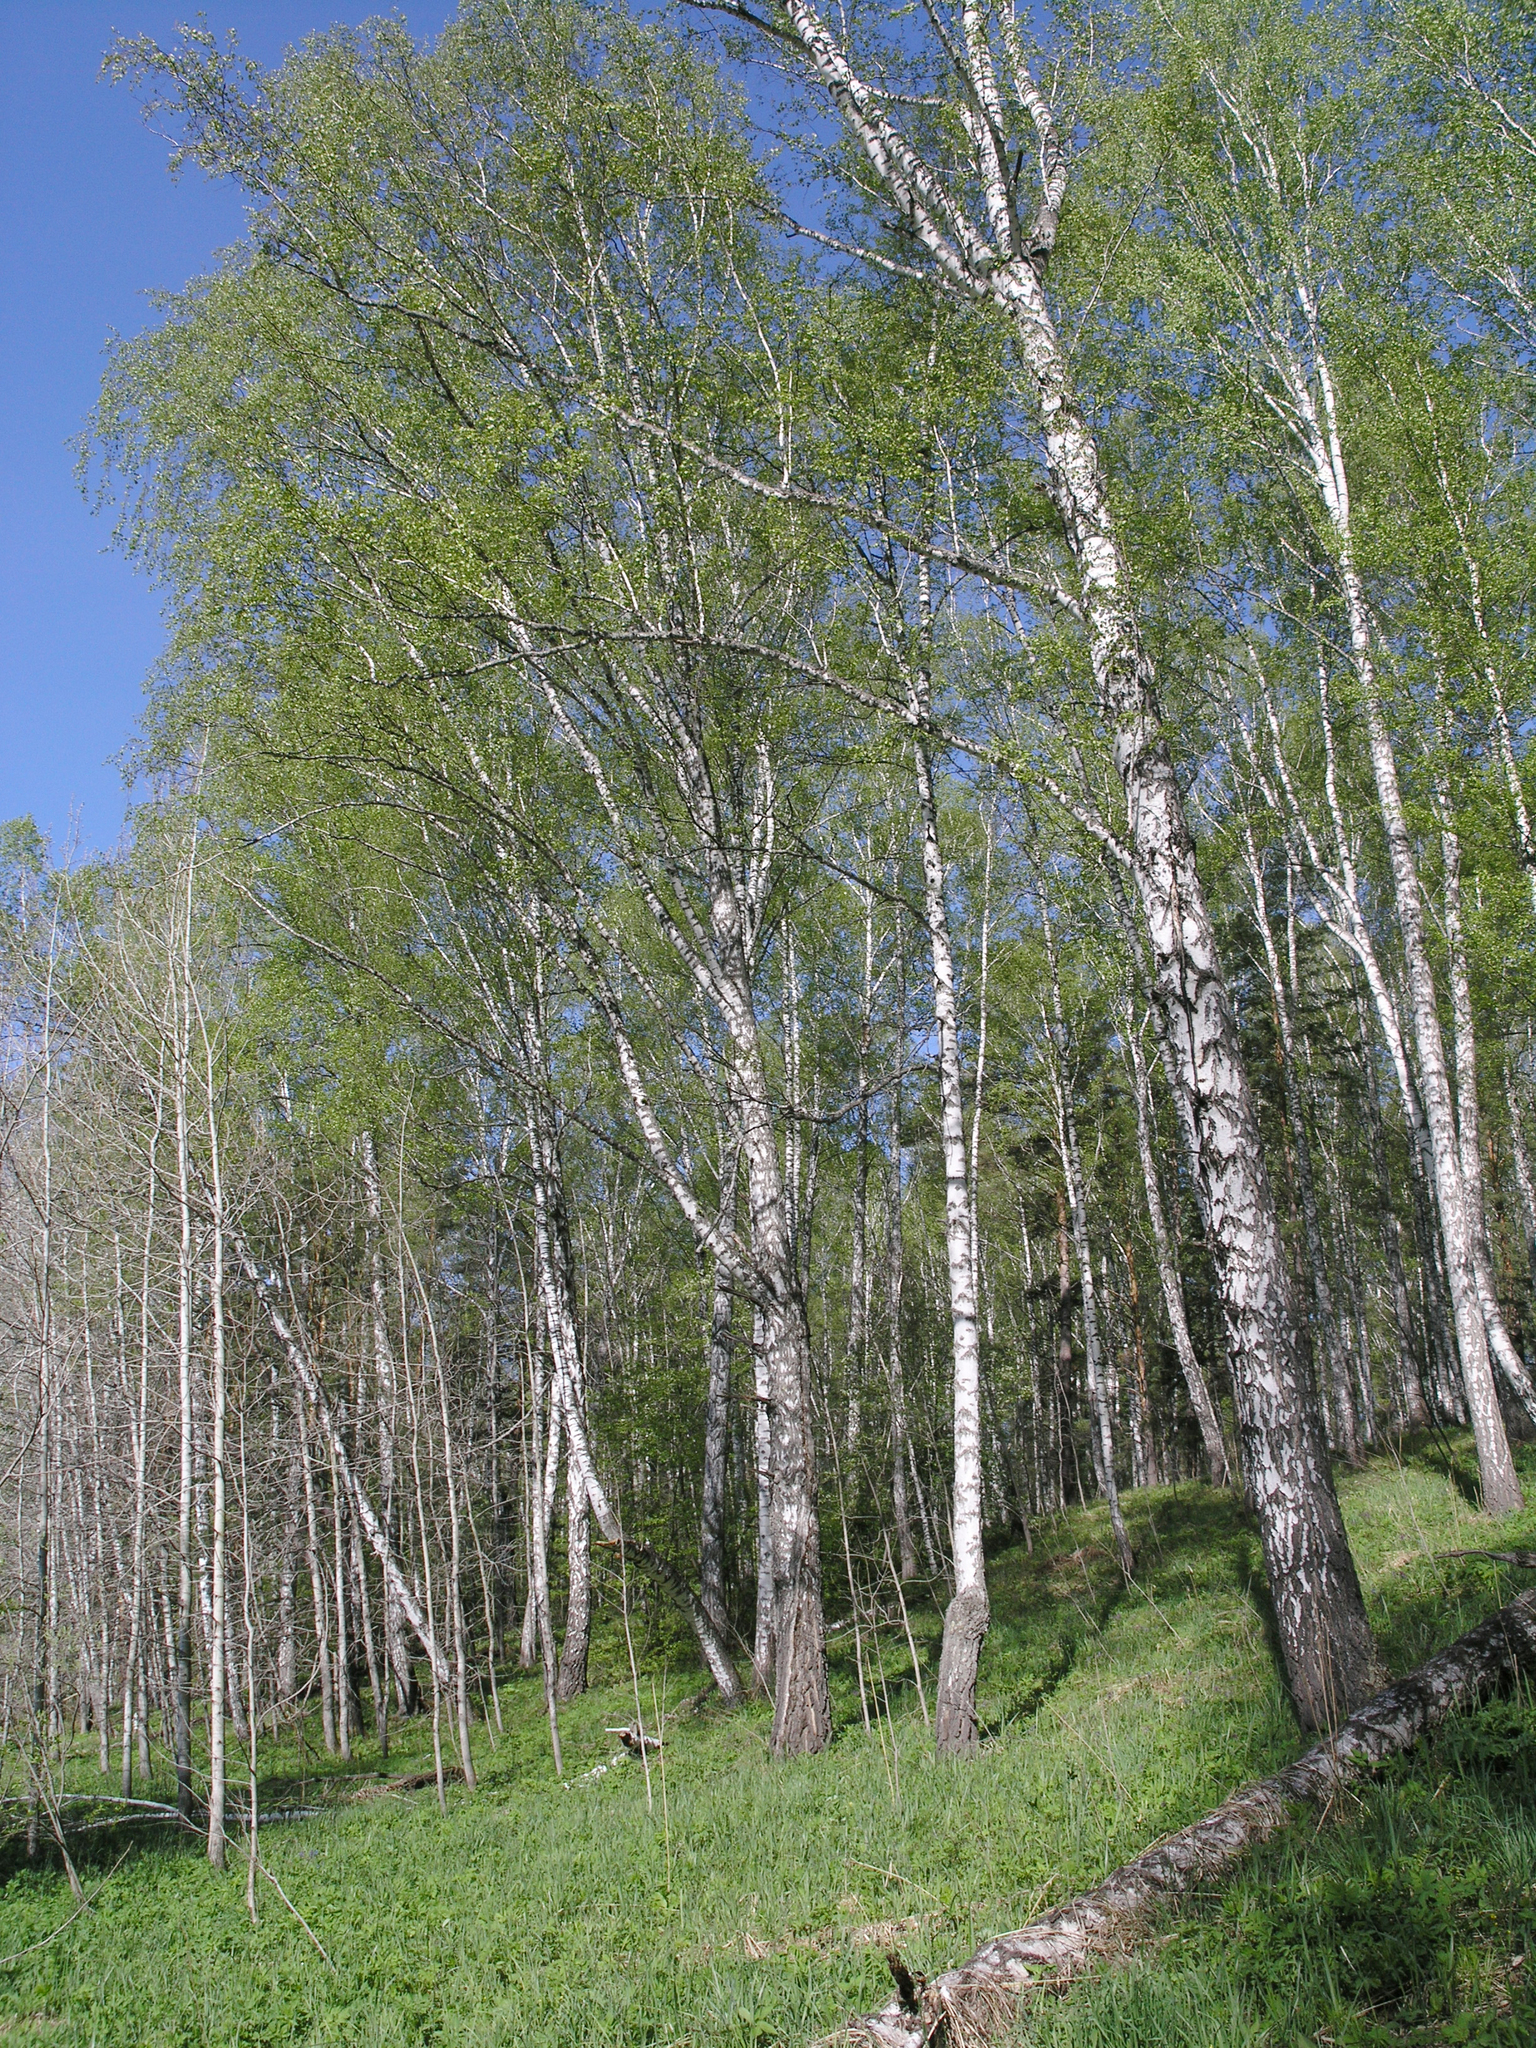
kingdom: Plantae
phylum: Tracheophyta
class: Magnoliopsida
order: Fagales
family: Betulaceae
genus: Betula
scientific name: Betula pendula
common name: Silver birch
